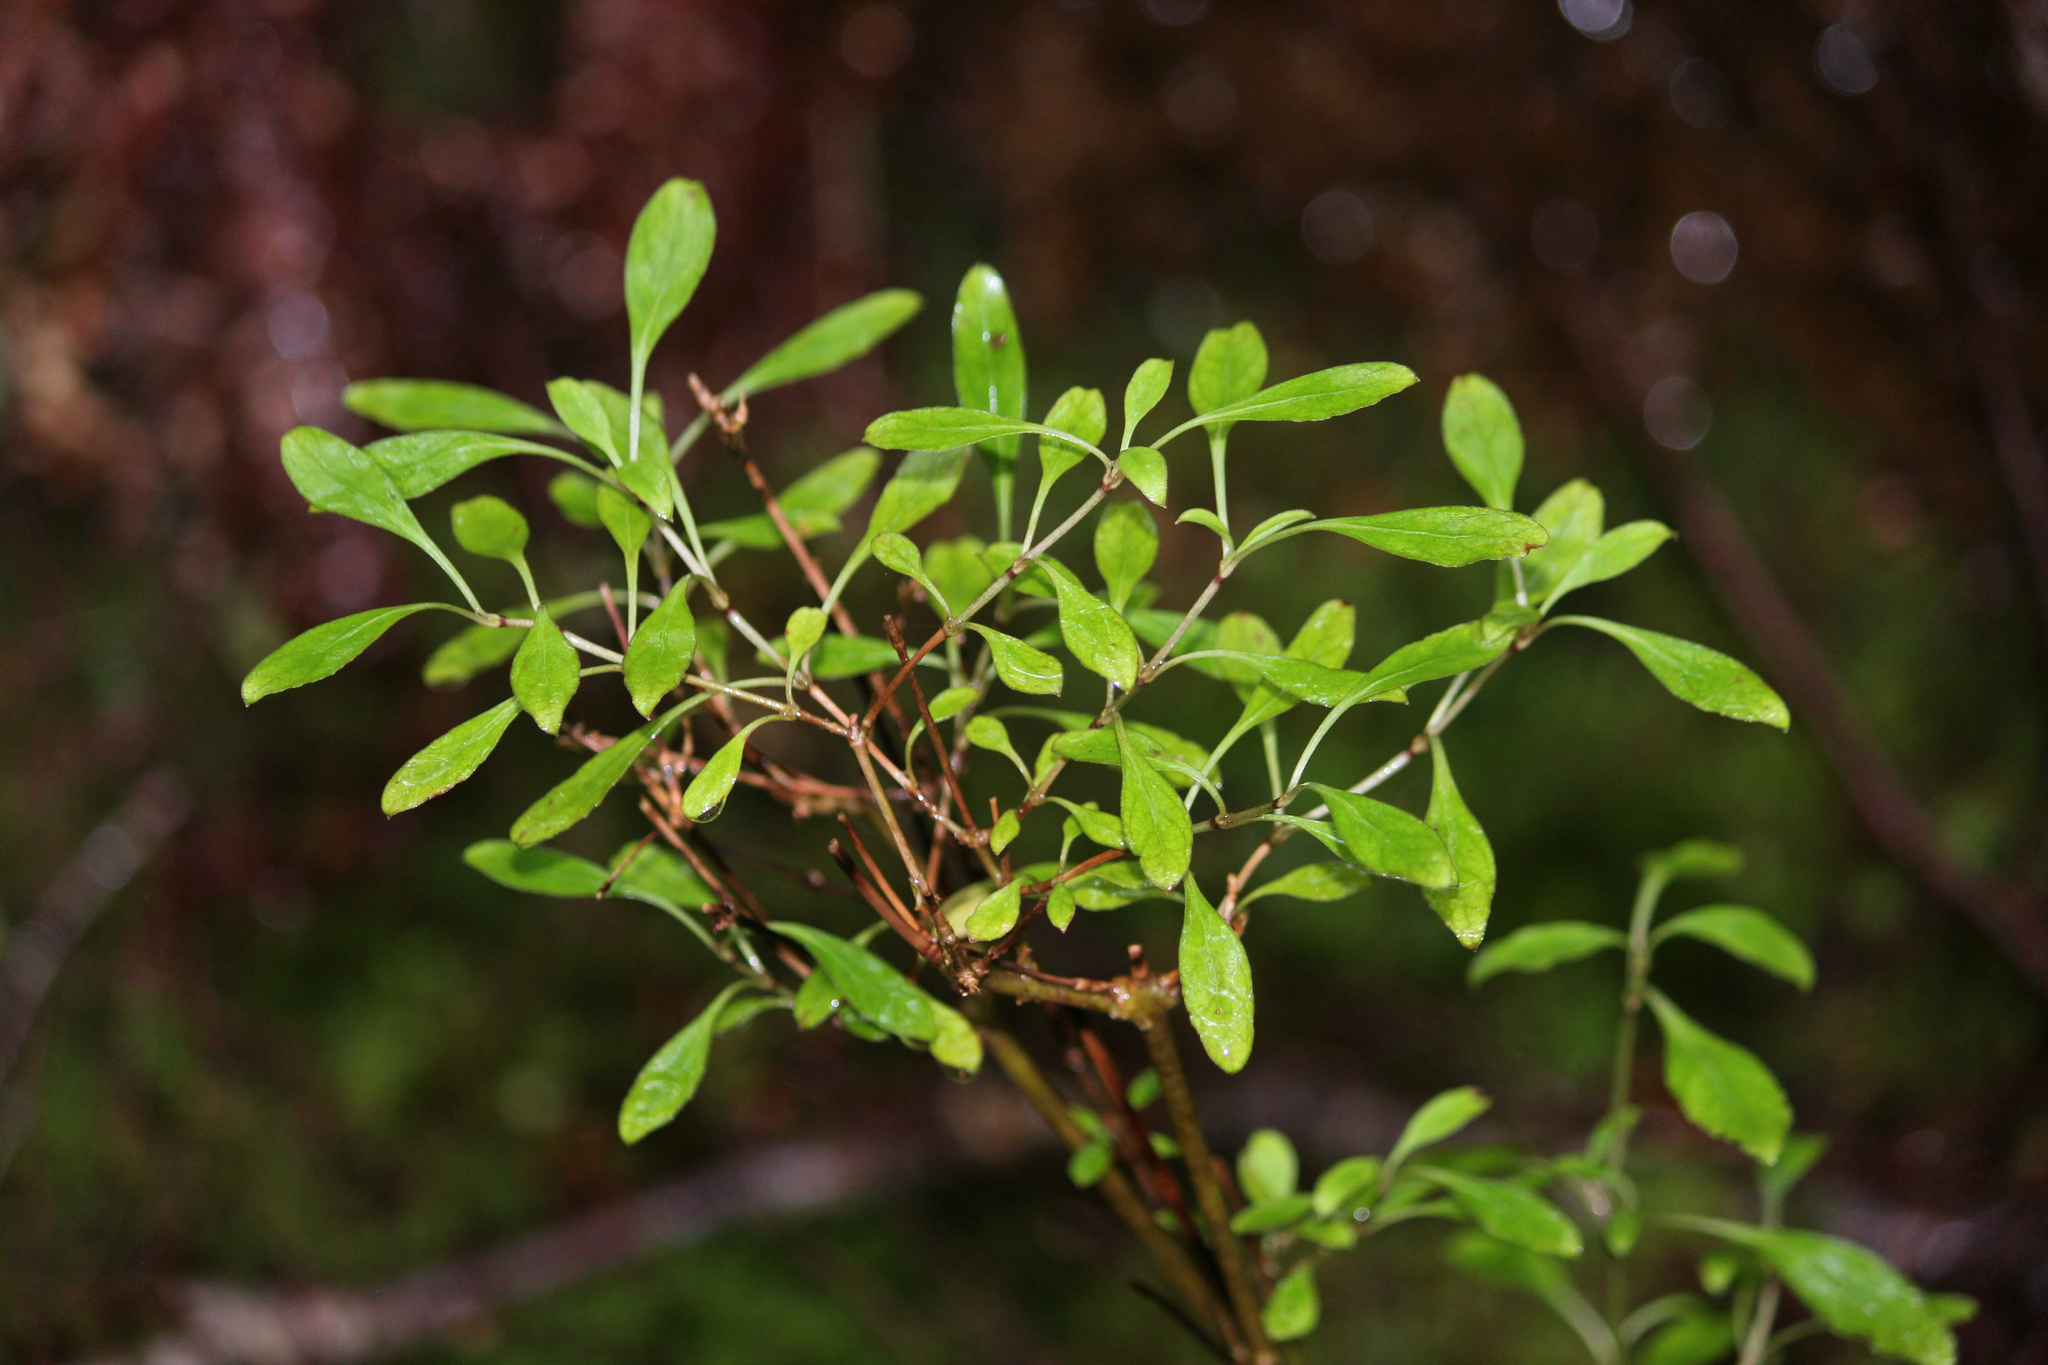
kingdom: Plantae
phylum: Tracheophyta
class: Magnoliopsida
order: Gentianales
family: Rubiaceae
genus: Coprosma
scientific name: Coprosma foetidissima
